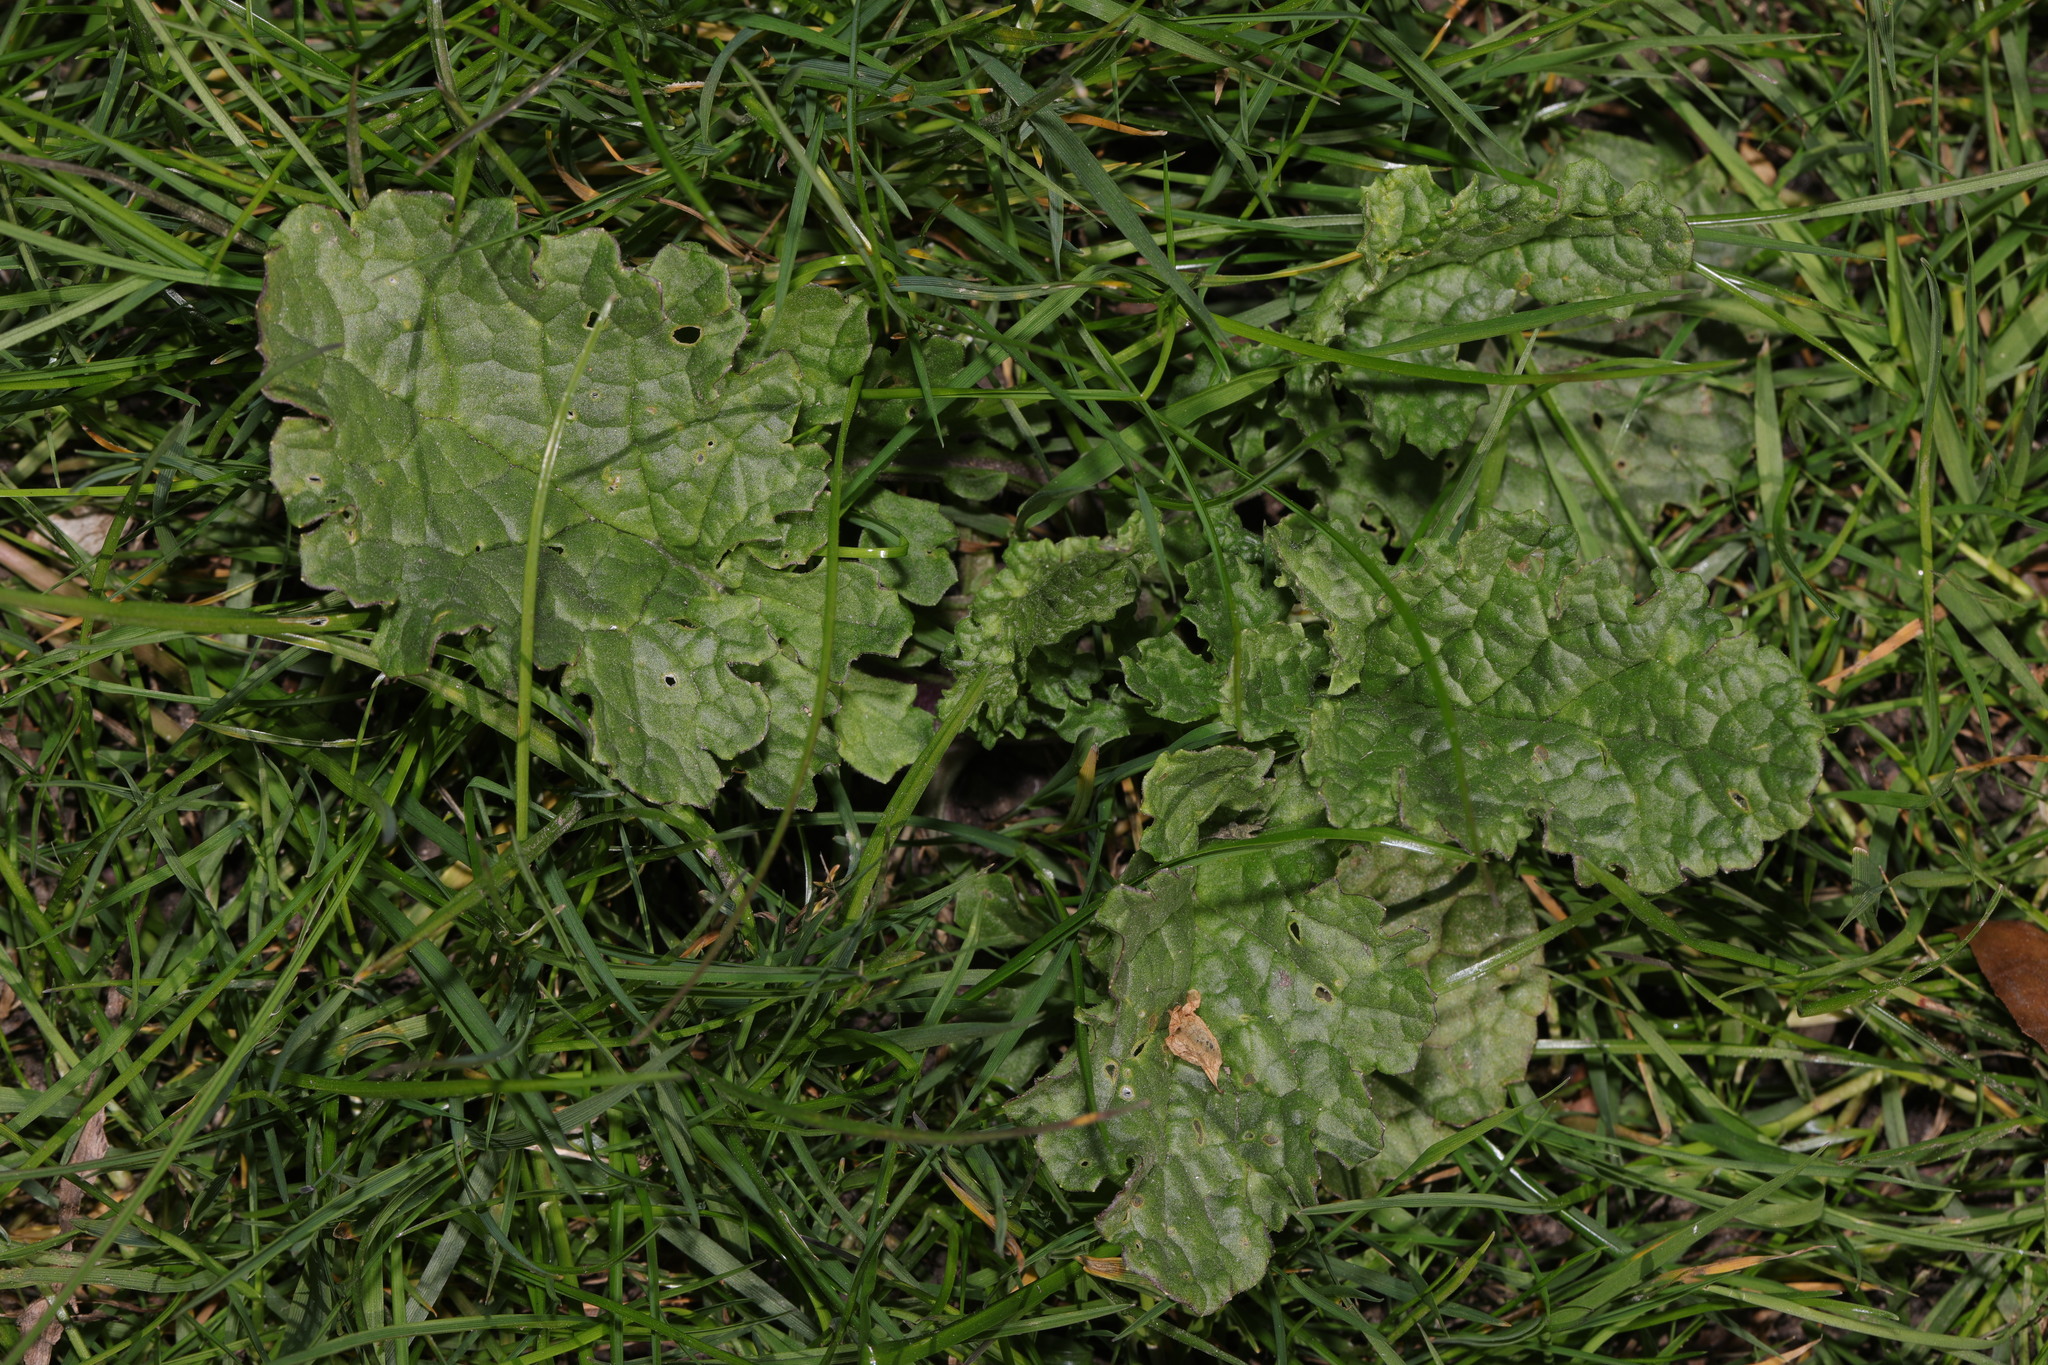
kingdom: Plantae
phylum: Tracheophyta
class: Magnoliopsida
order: Asterales
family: Asteraceae
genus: Jacobaea
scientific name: Jacobaea vulgaris
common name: Stinking willie
